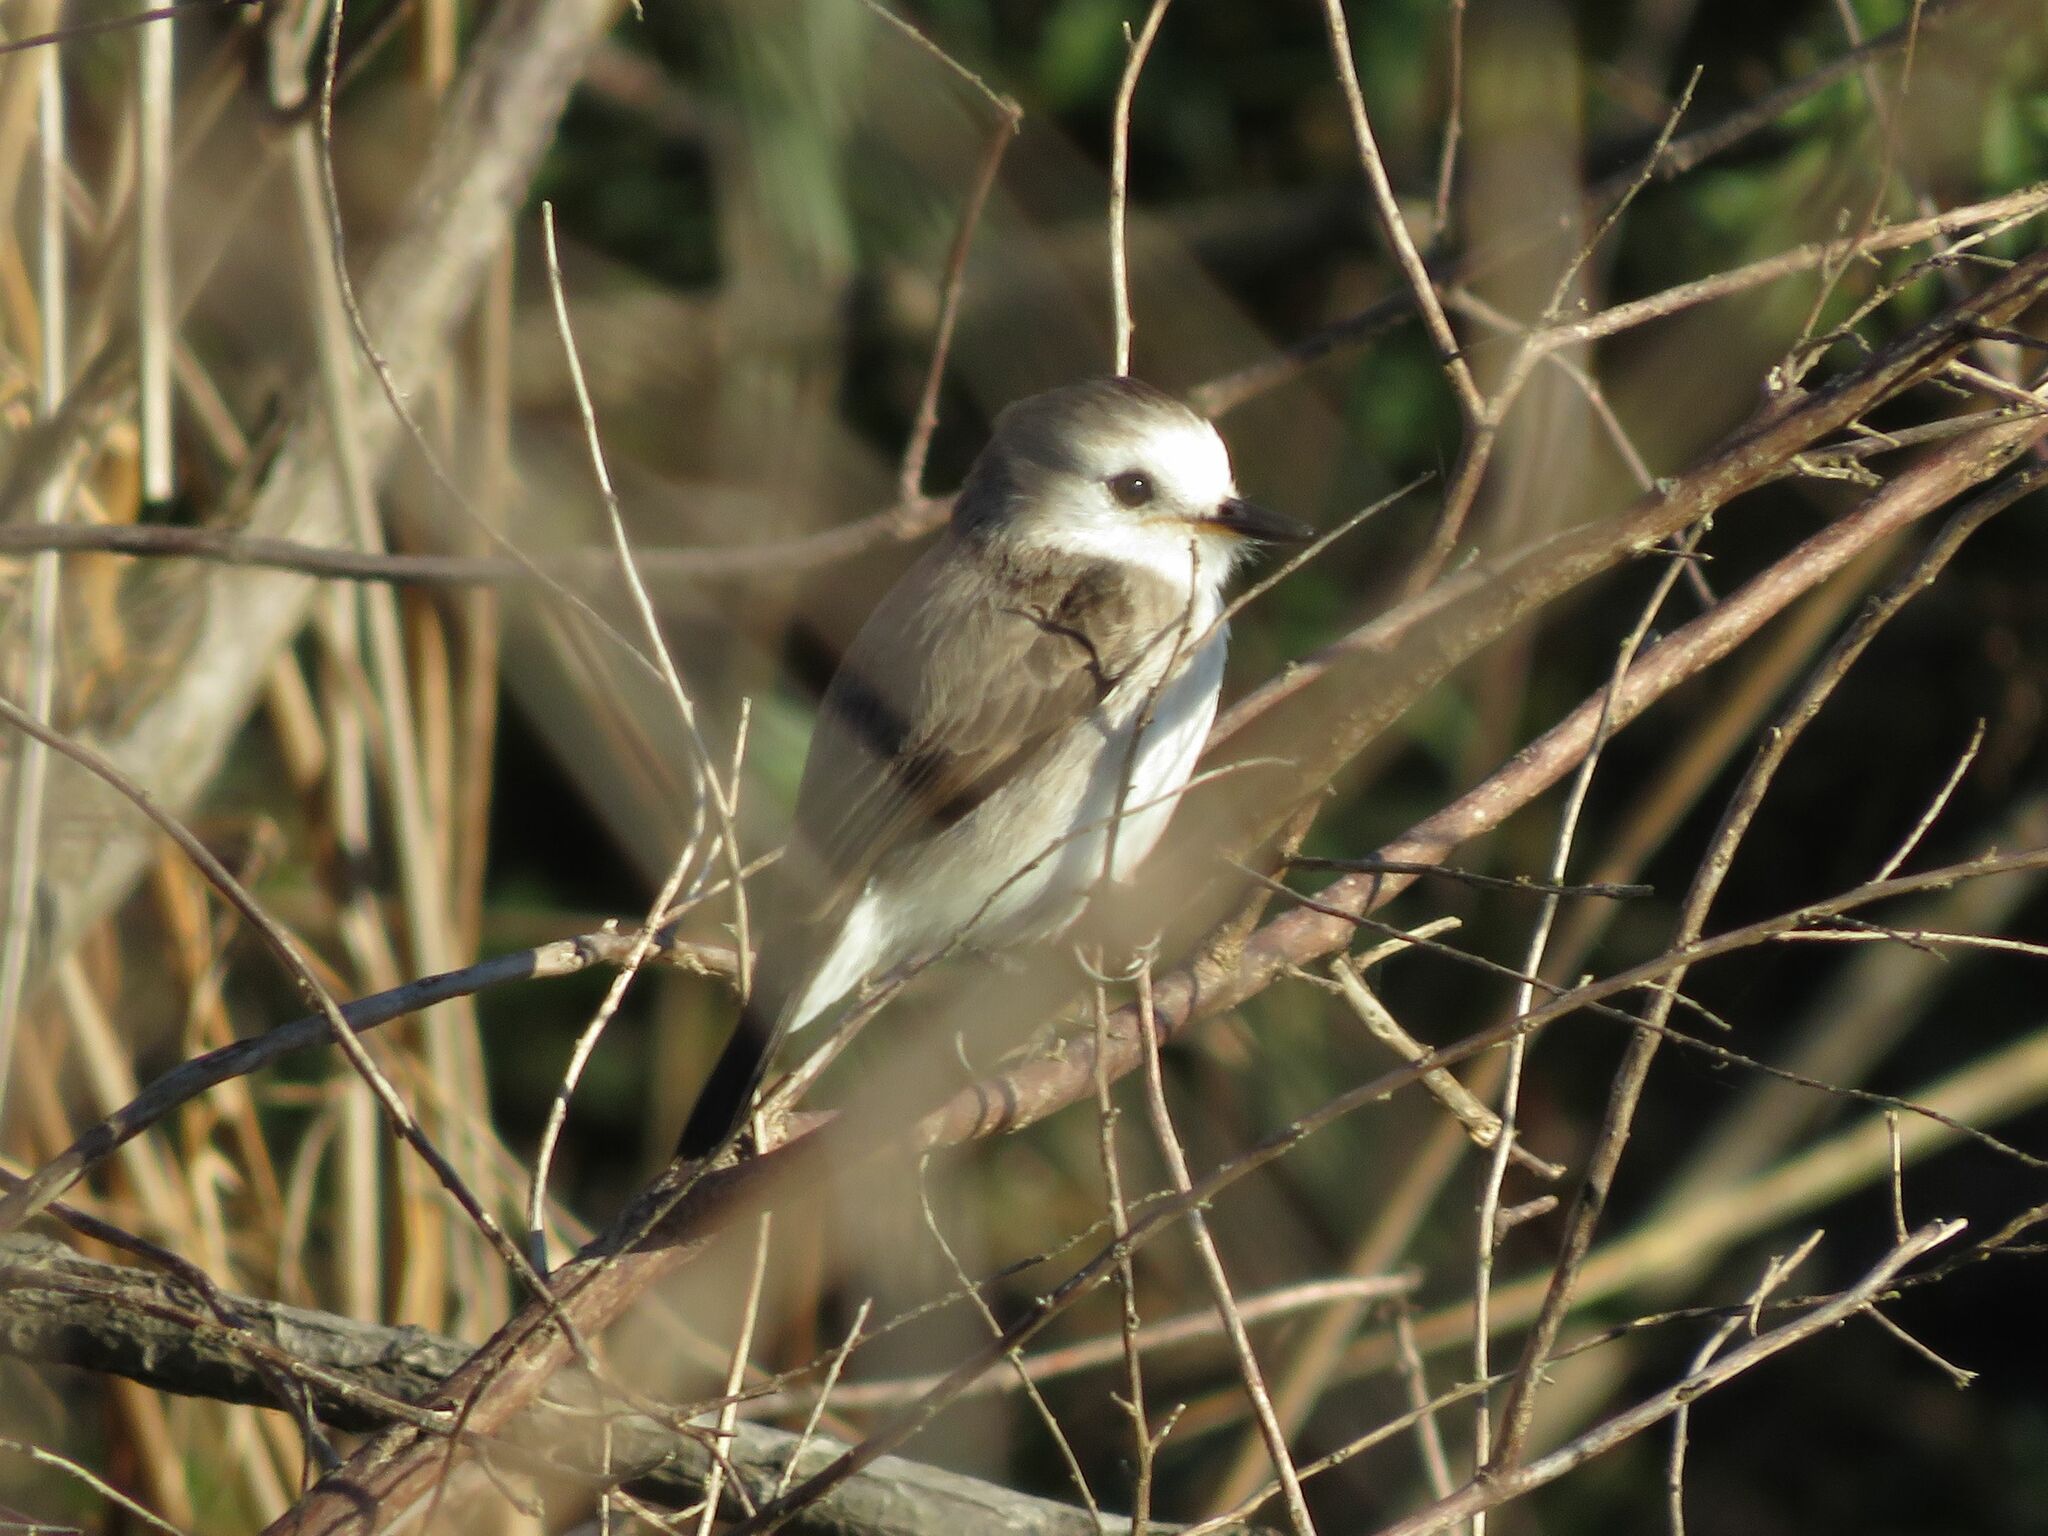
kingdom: Animalia
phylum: Chordata
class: Aves
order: Passeriformes
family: Tyrannidae
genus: Arundinicola
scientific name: Arundinicola leucocephala
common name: White-headed marsh tyrant
